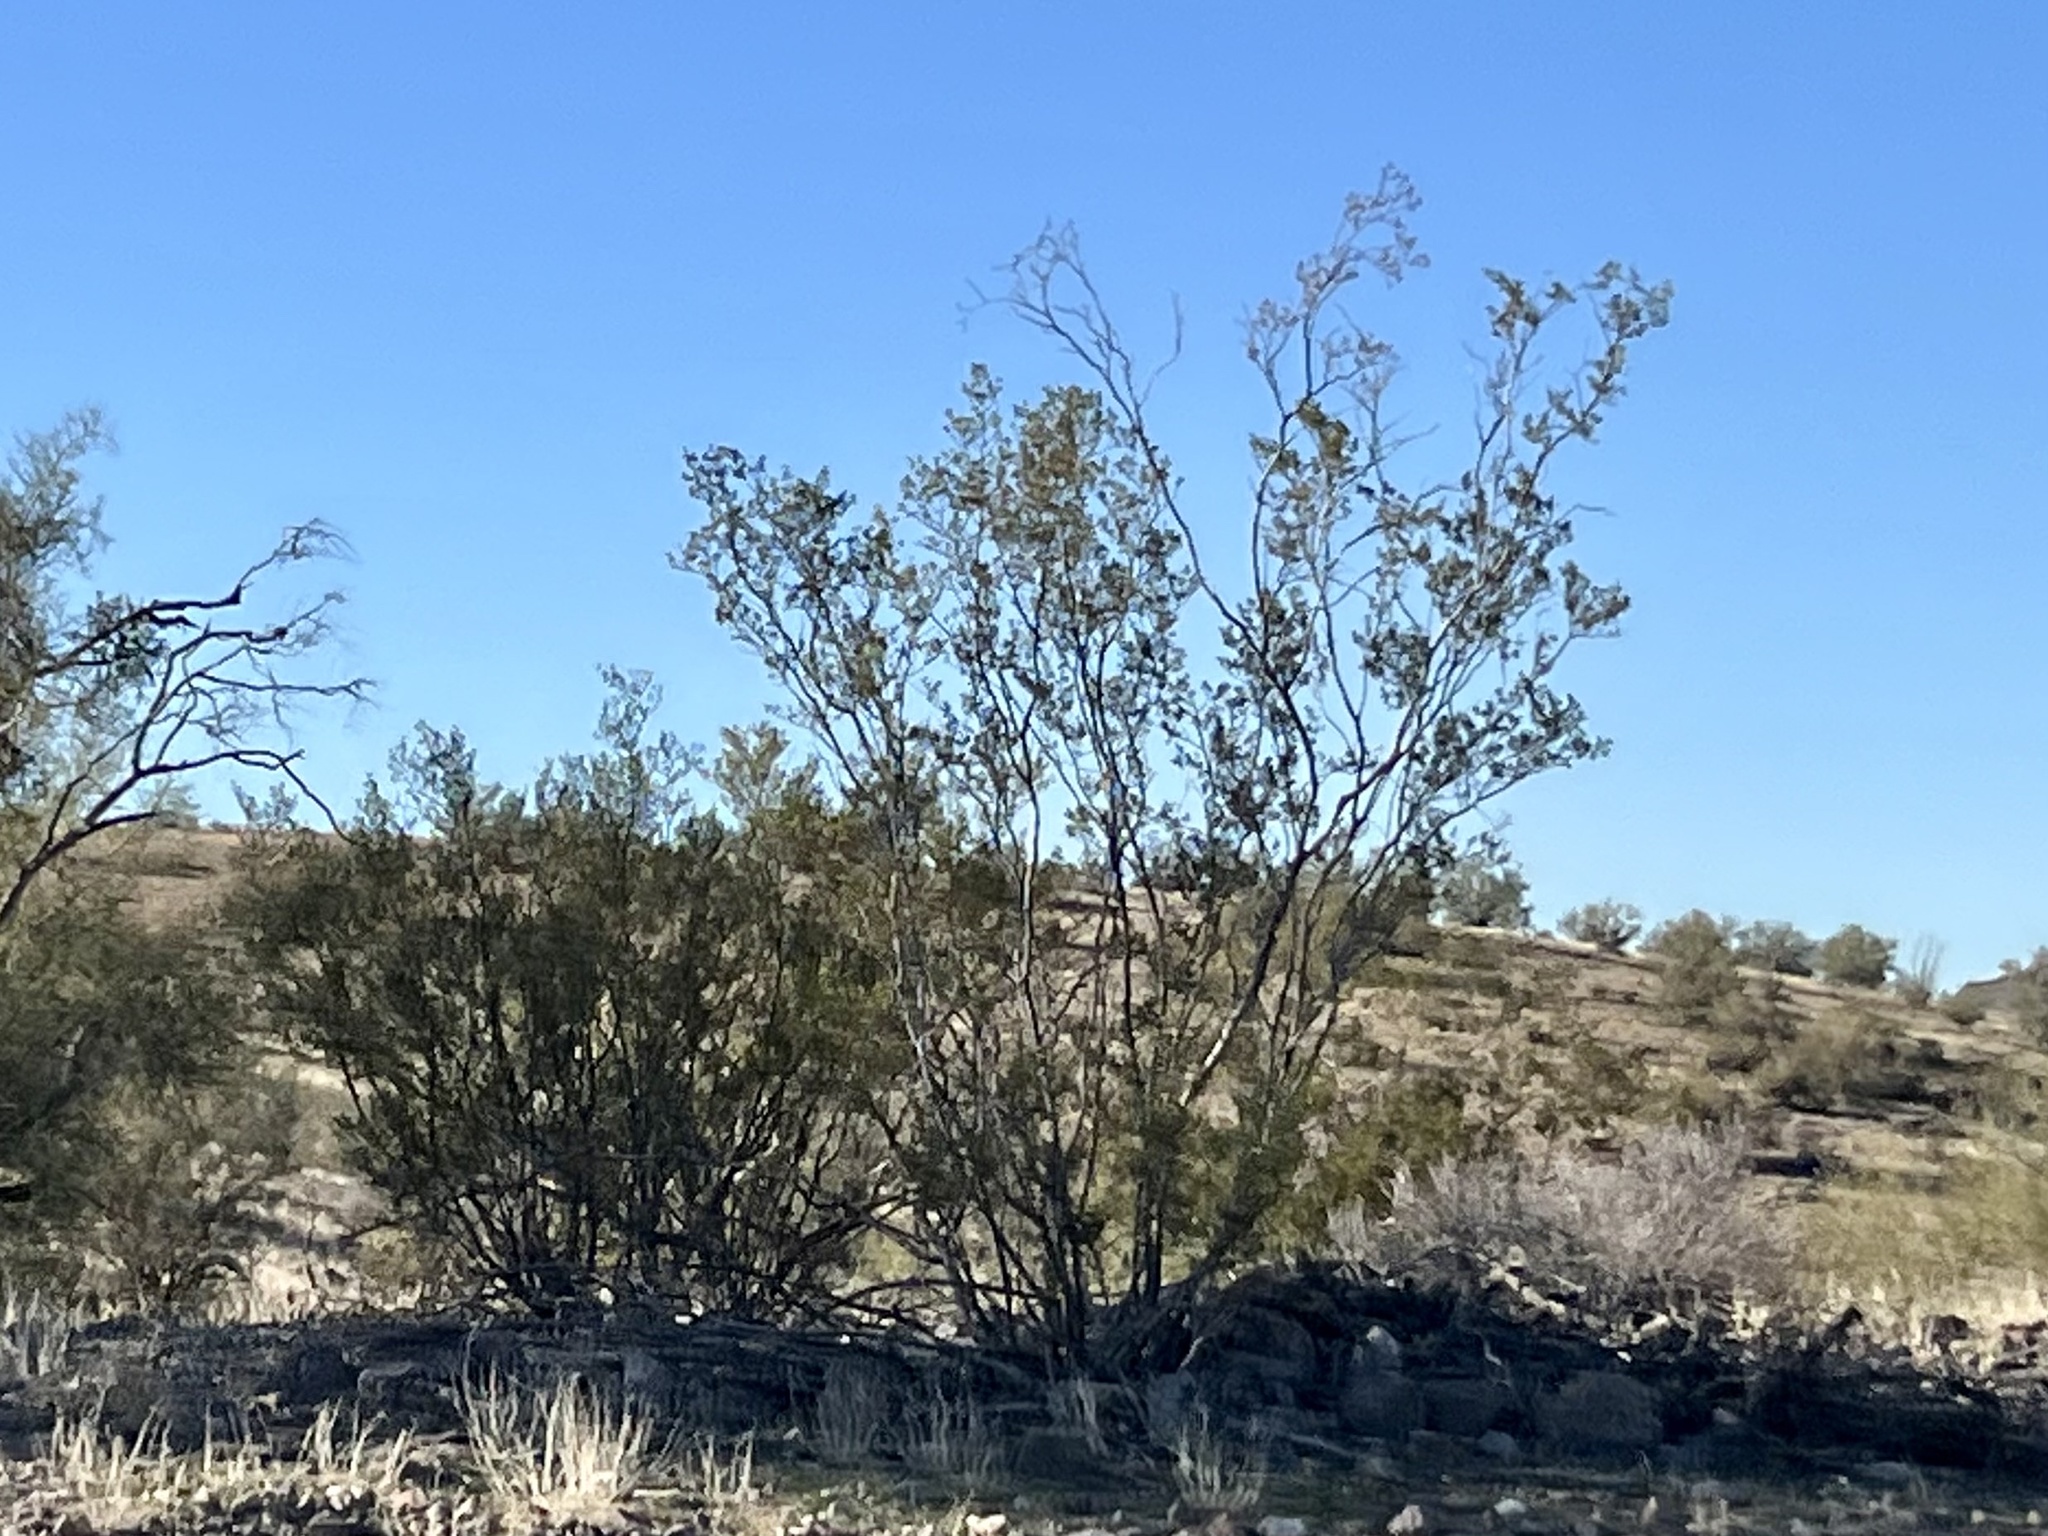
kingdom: Plantae
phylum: Tracheophyta
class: Magnoliopsida
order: Zygophyllales
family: Zygophyllaceae
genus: Larrea
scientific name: Larrea tridentata
